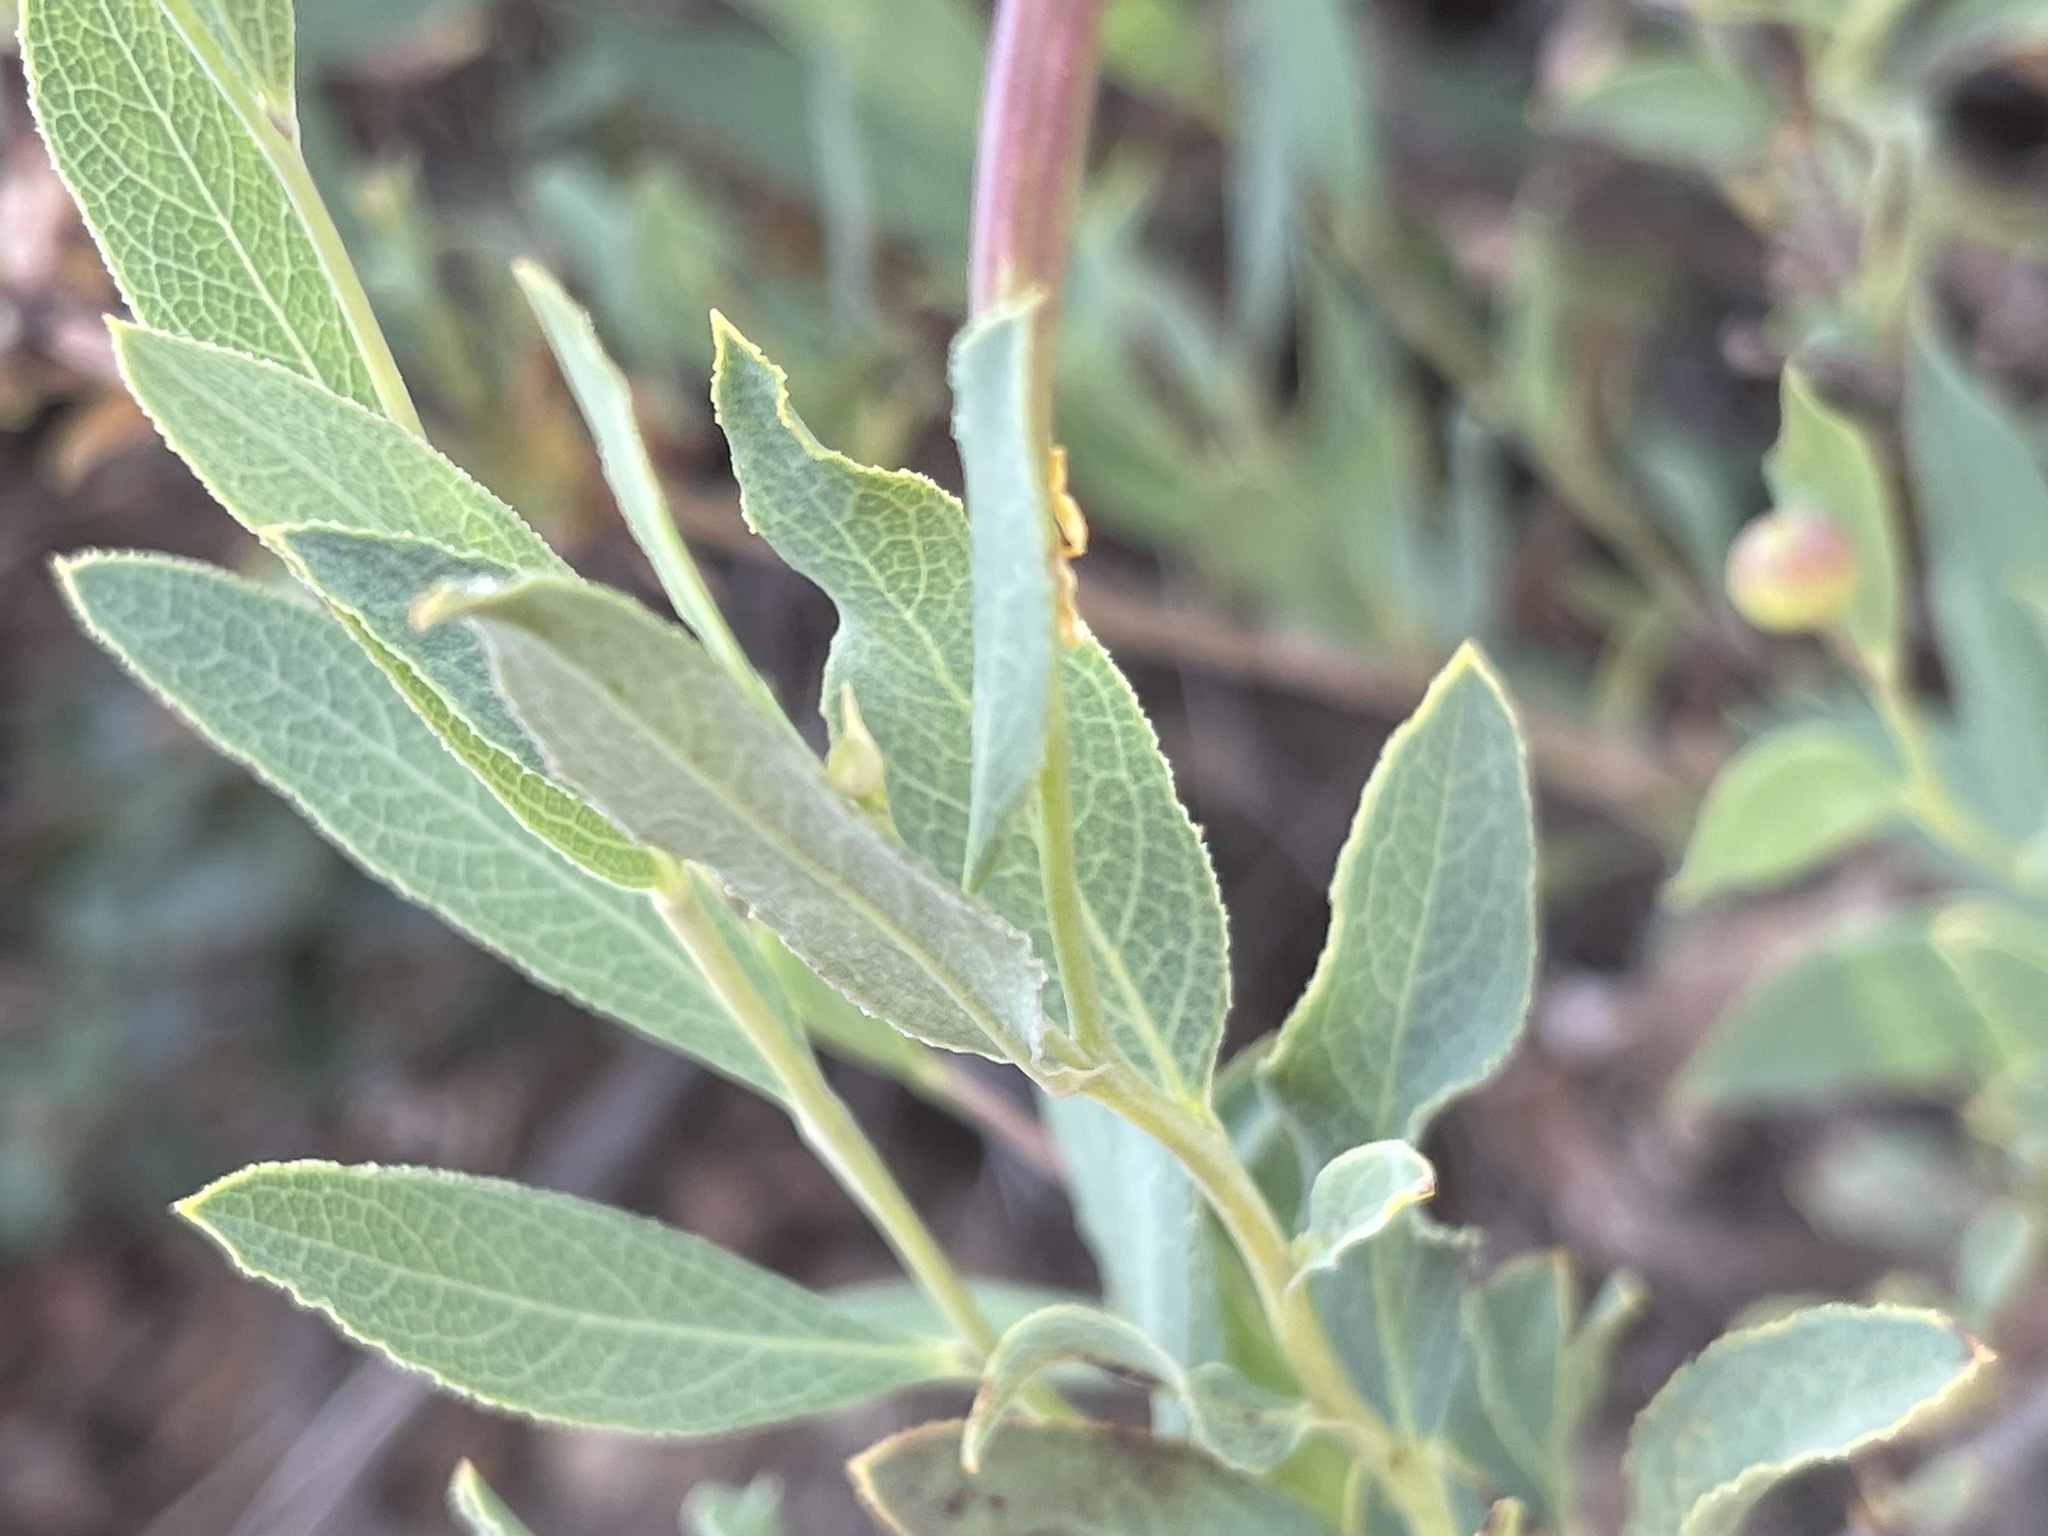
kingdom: Plantae
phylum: Tracheophyta
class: Magnoliopsida
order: Ranunculales
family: Papaveraceae
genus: Dendromecon
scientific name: Dendromecon rigida
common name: Tree poppy
